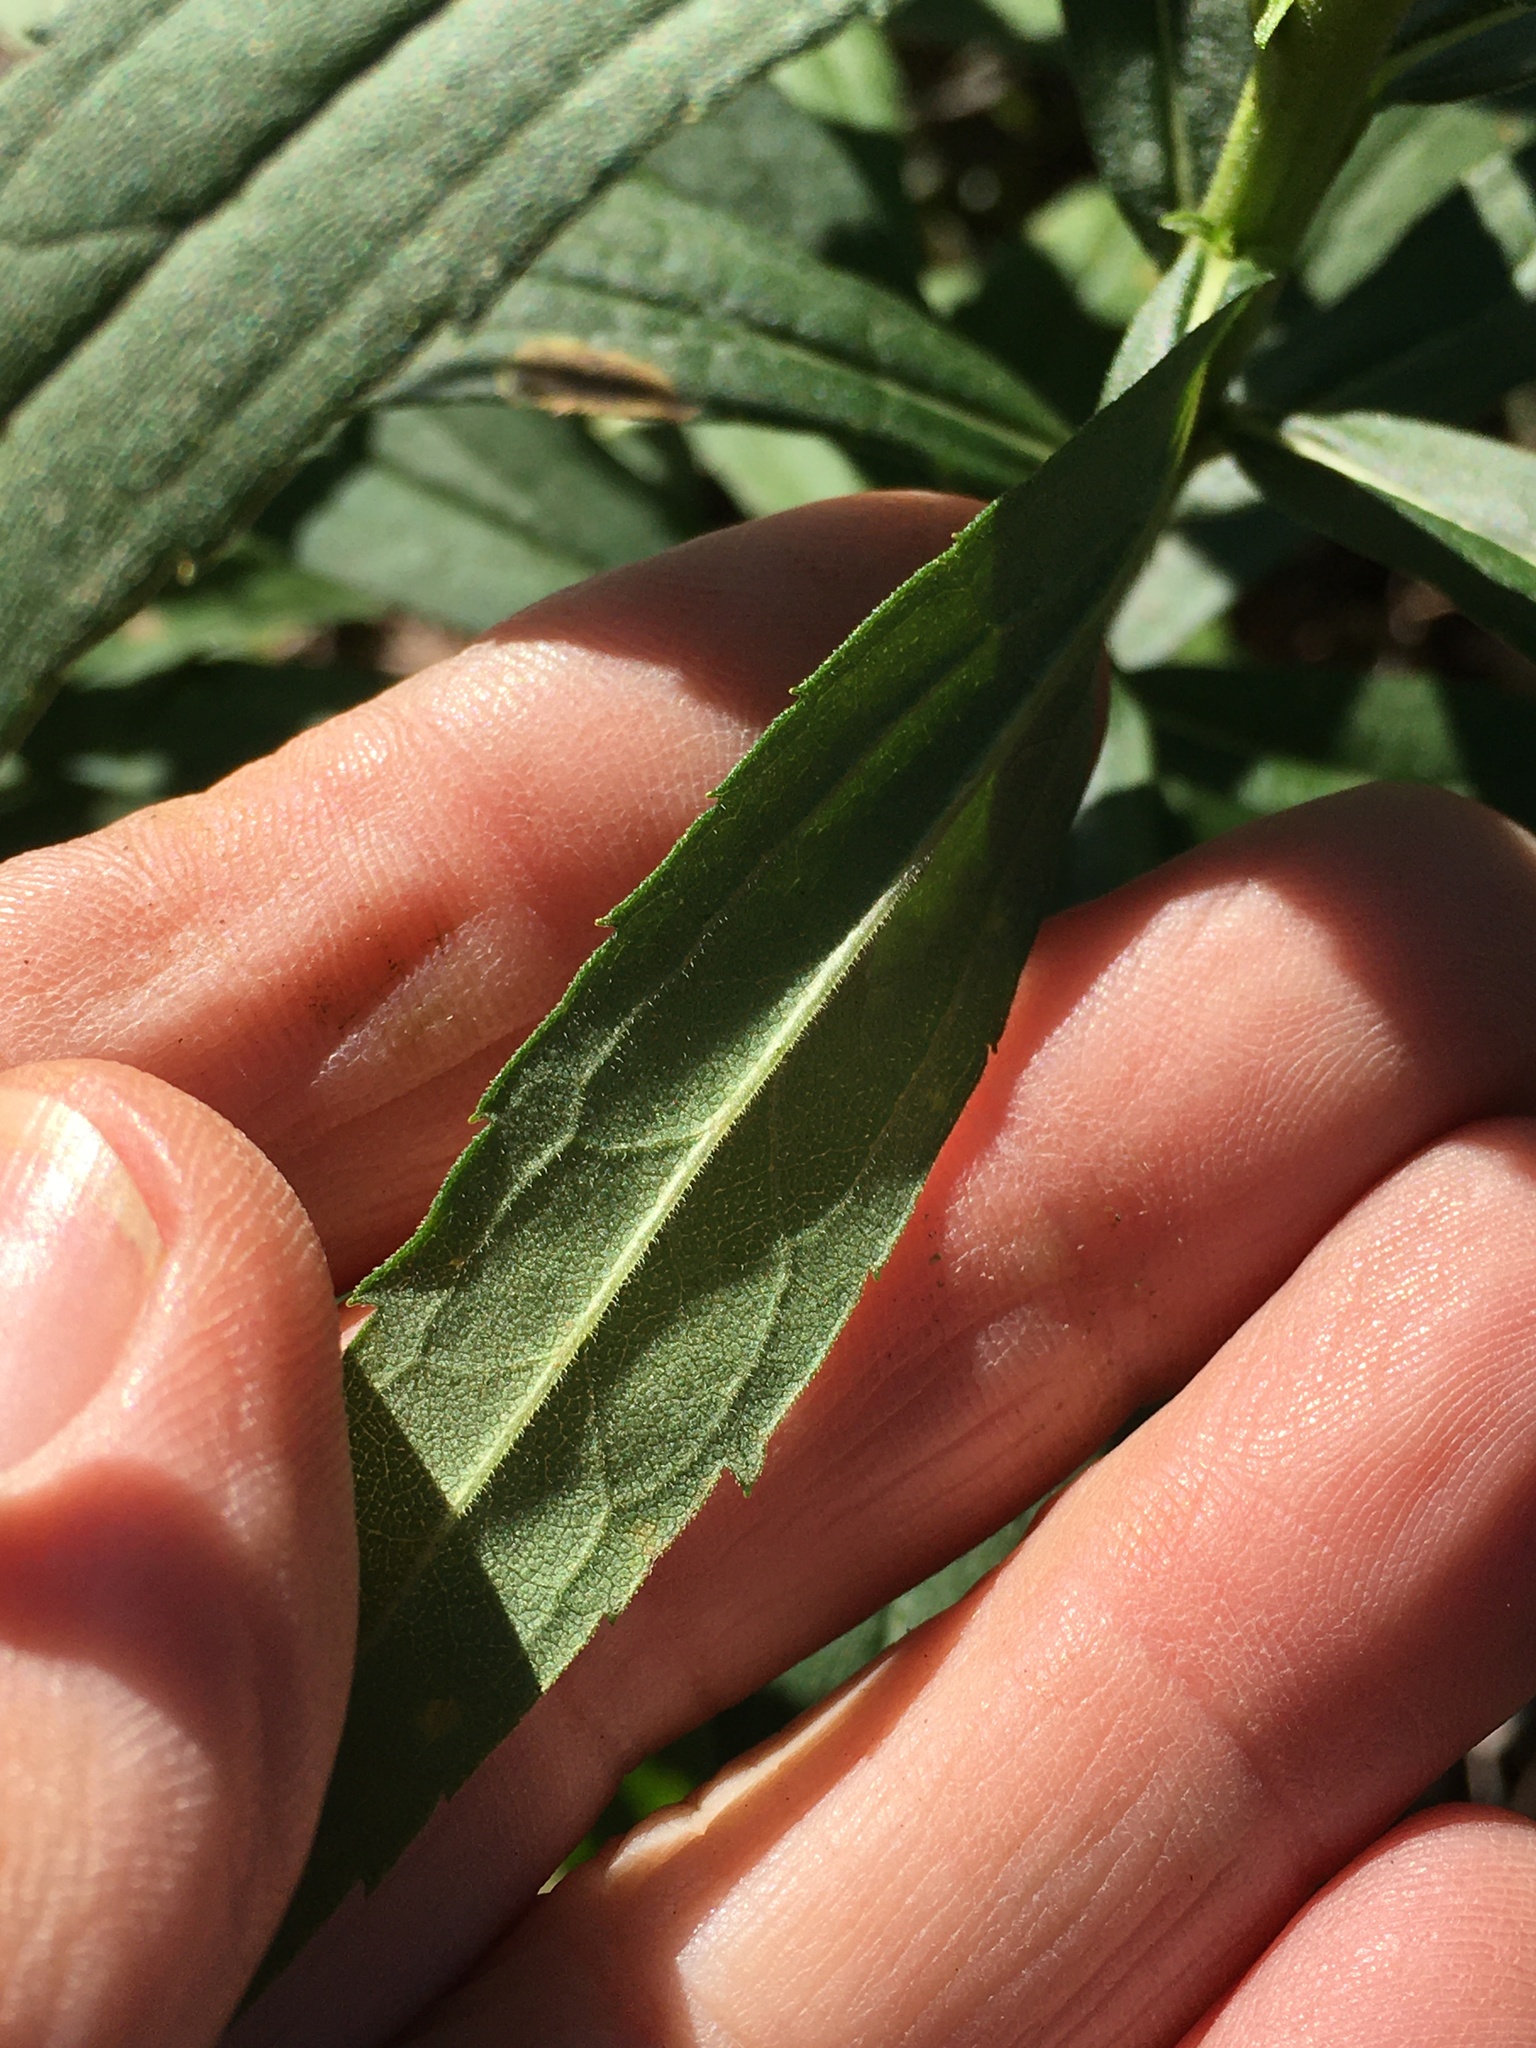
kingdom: Plantae
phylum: Tracheophyta
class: Magnoliopsida
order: Asterales
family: Asteraceae
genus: Solidago
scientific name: Solidago altissima
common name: Late goldenrod
